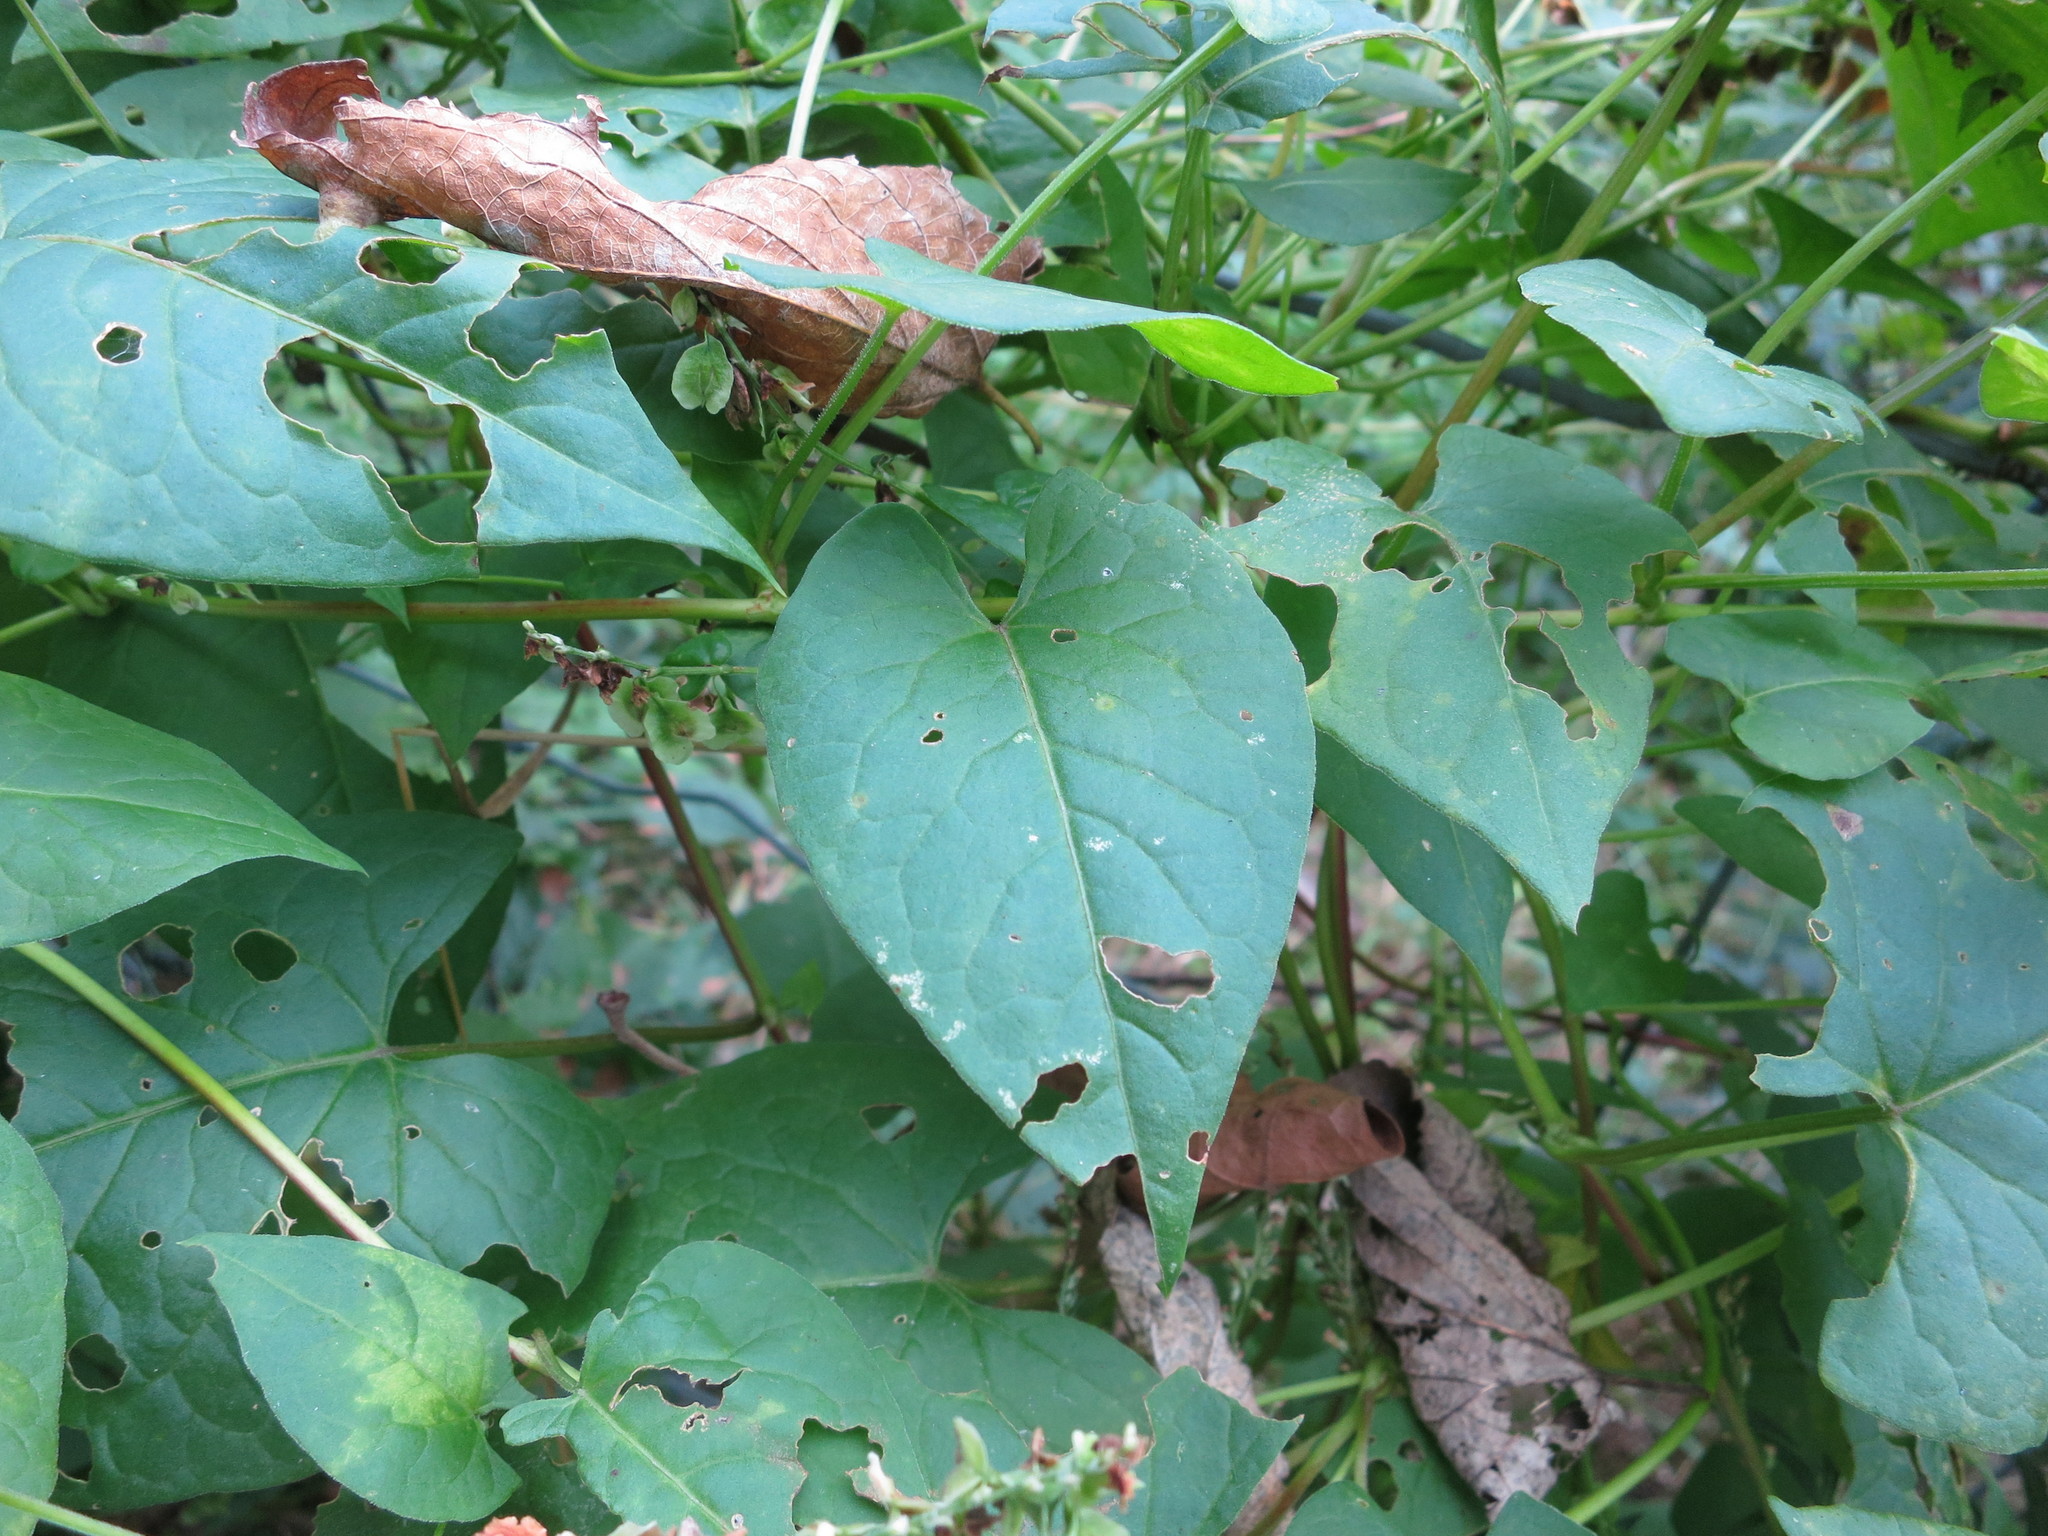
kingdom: Plantae
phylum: Tracheophyta
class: Magnoliopsida
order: Caryophyllales
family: Polygonaceae
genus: Fallopia
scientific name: Fallopia scandens
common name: Climbing false buckwheat
